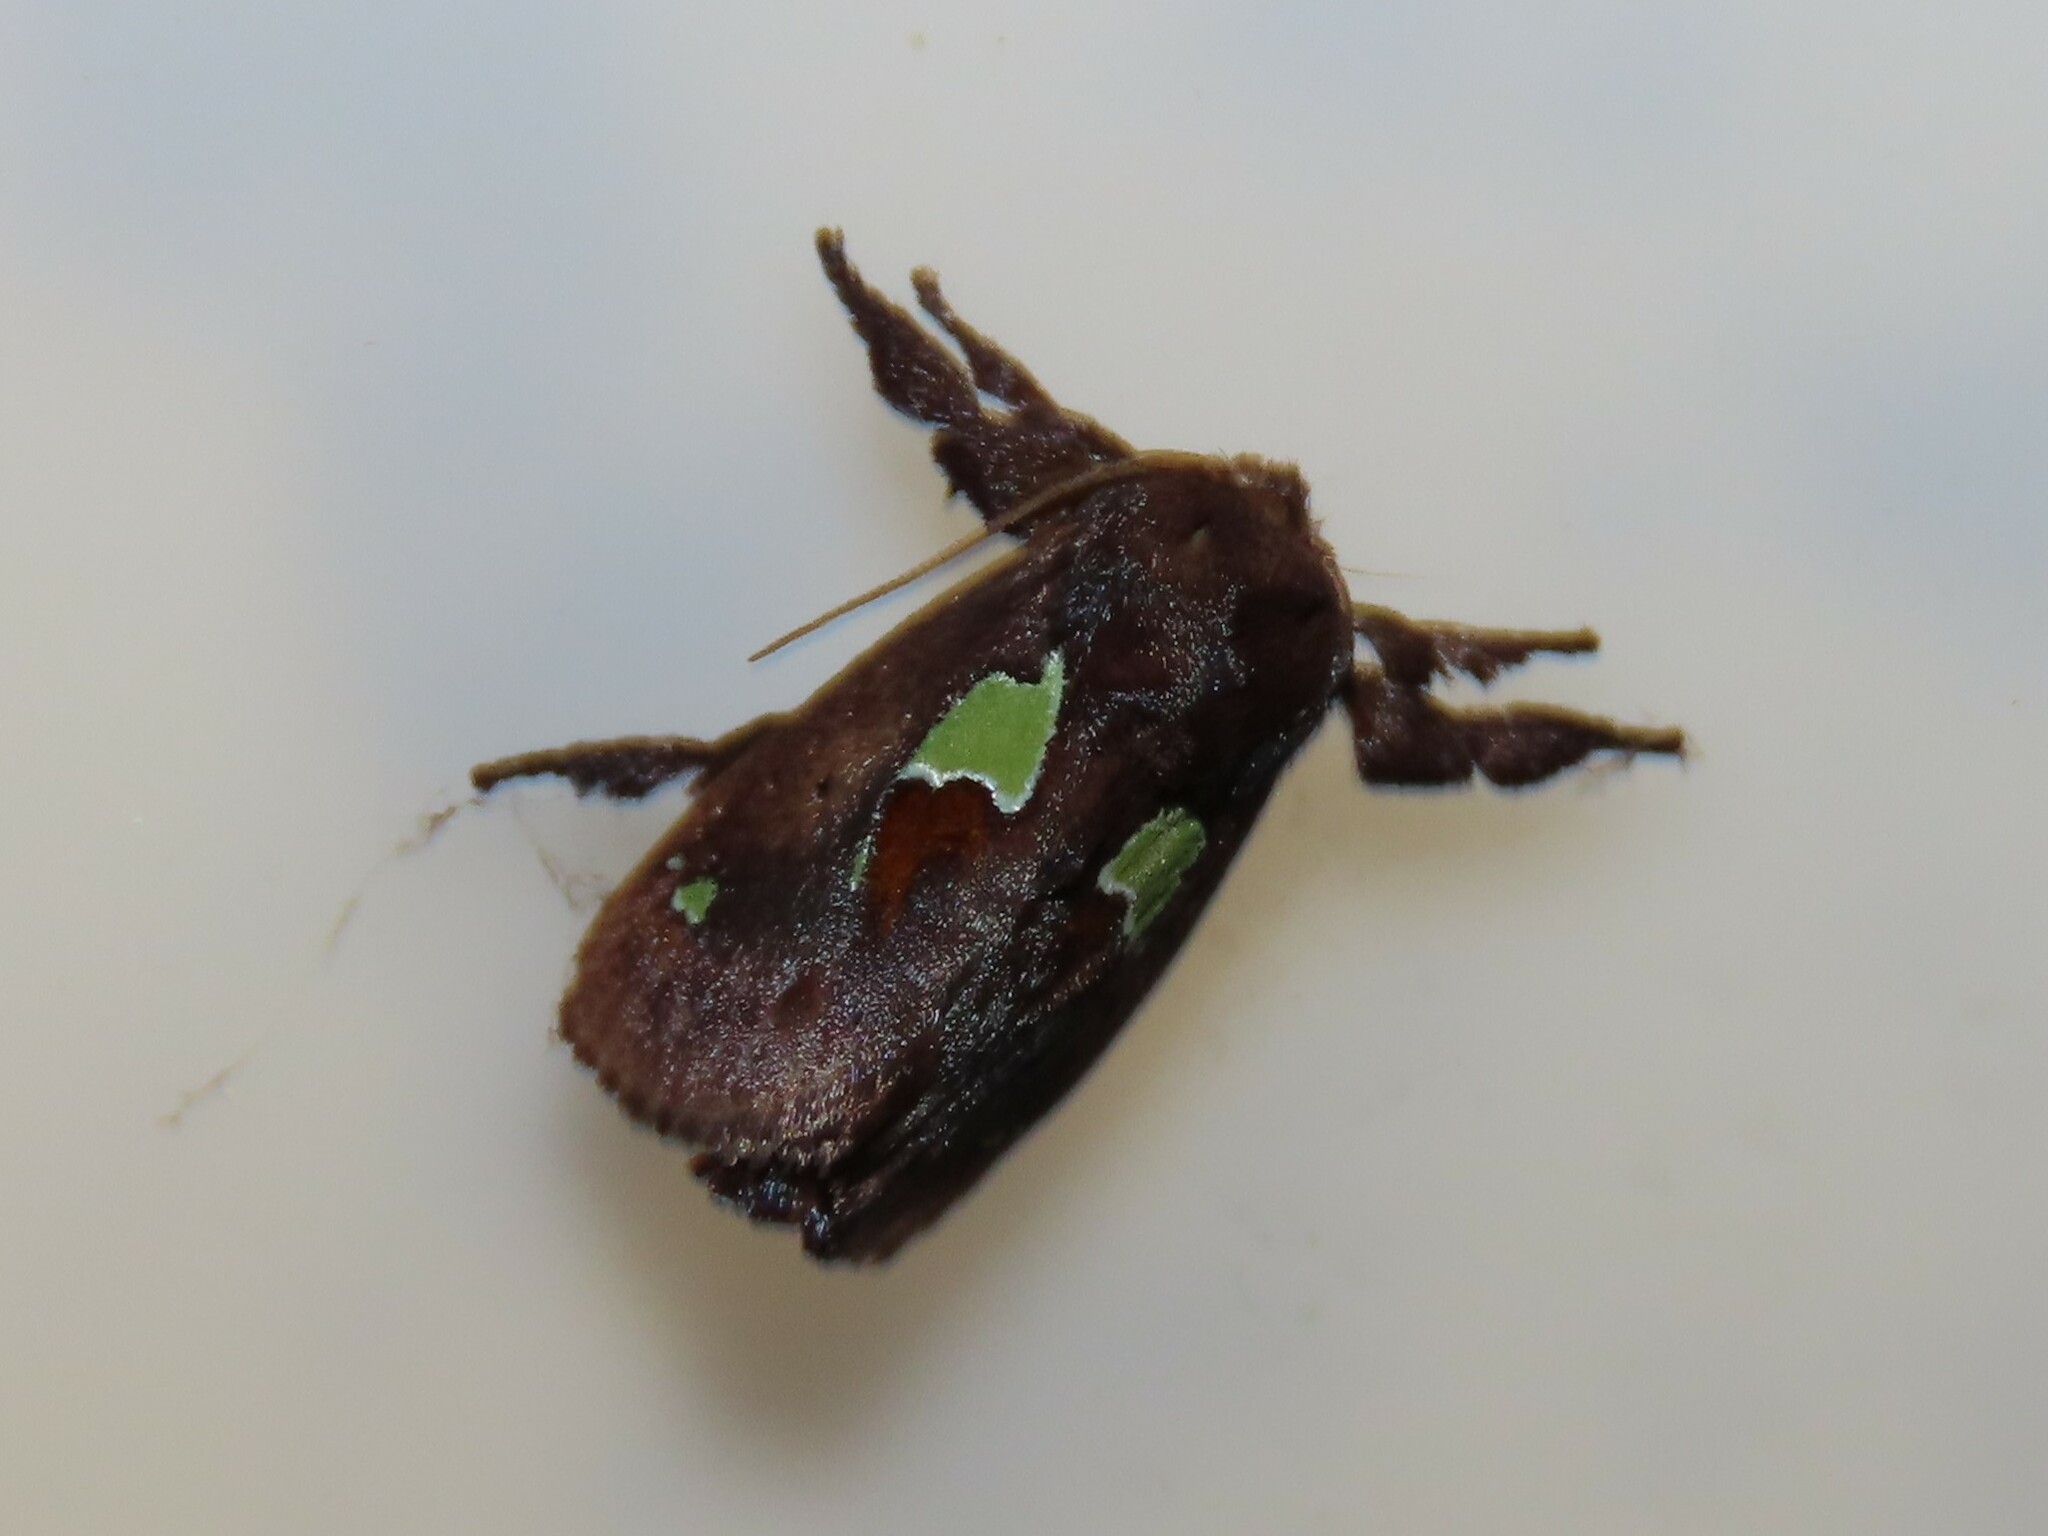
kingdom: Animalia
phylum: Arthropoda
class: Insecta
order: Lepidoptera
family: Limacodidae
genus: Euclea
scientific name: Euclea delphinii
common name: Spiny oak-slug moth
